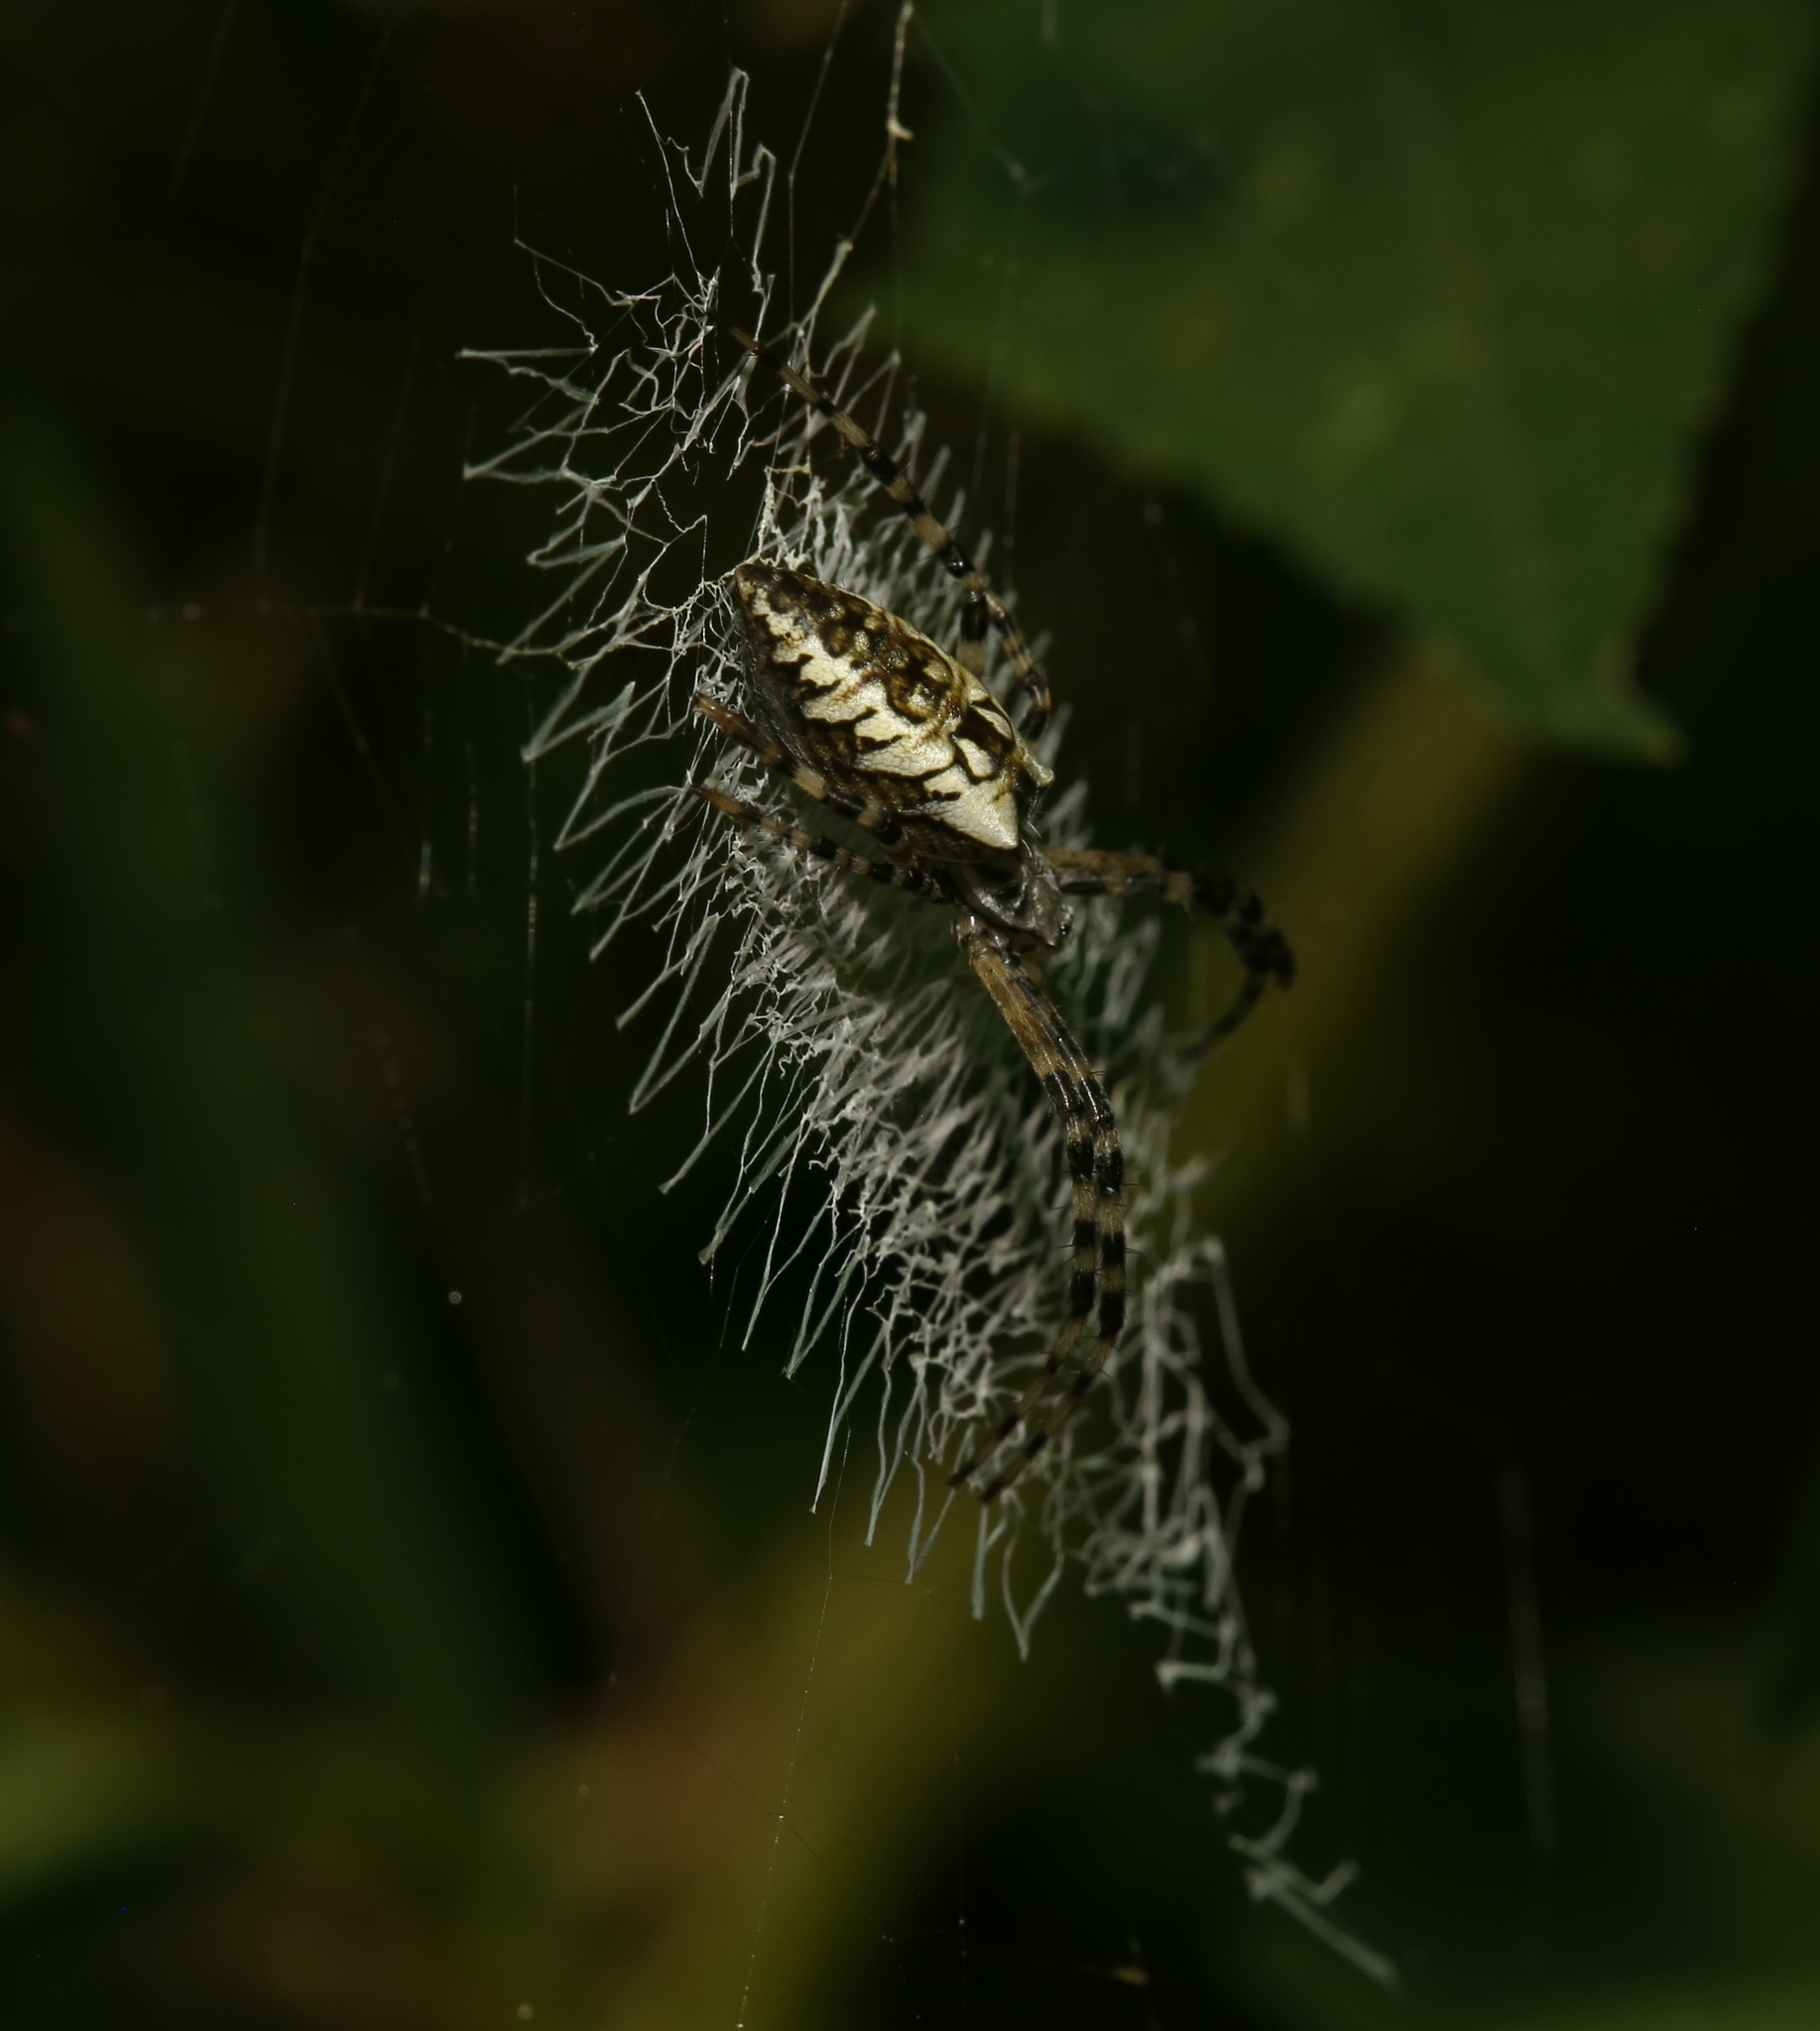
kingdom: Animalia
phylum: Arthropoda
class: Arachnida
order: Araneae
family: Araneidae
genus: Argiope
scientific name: Argiope aurantia
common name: Orb weavers
